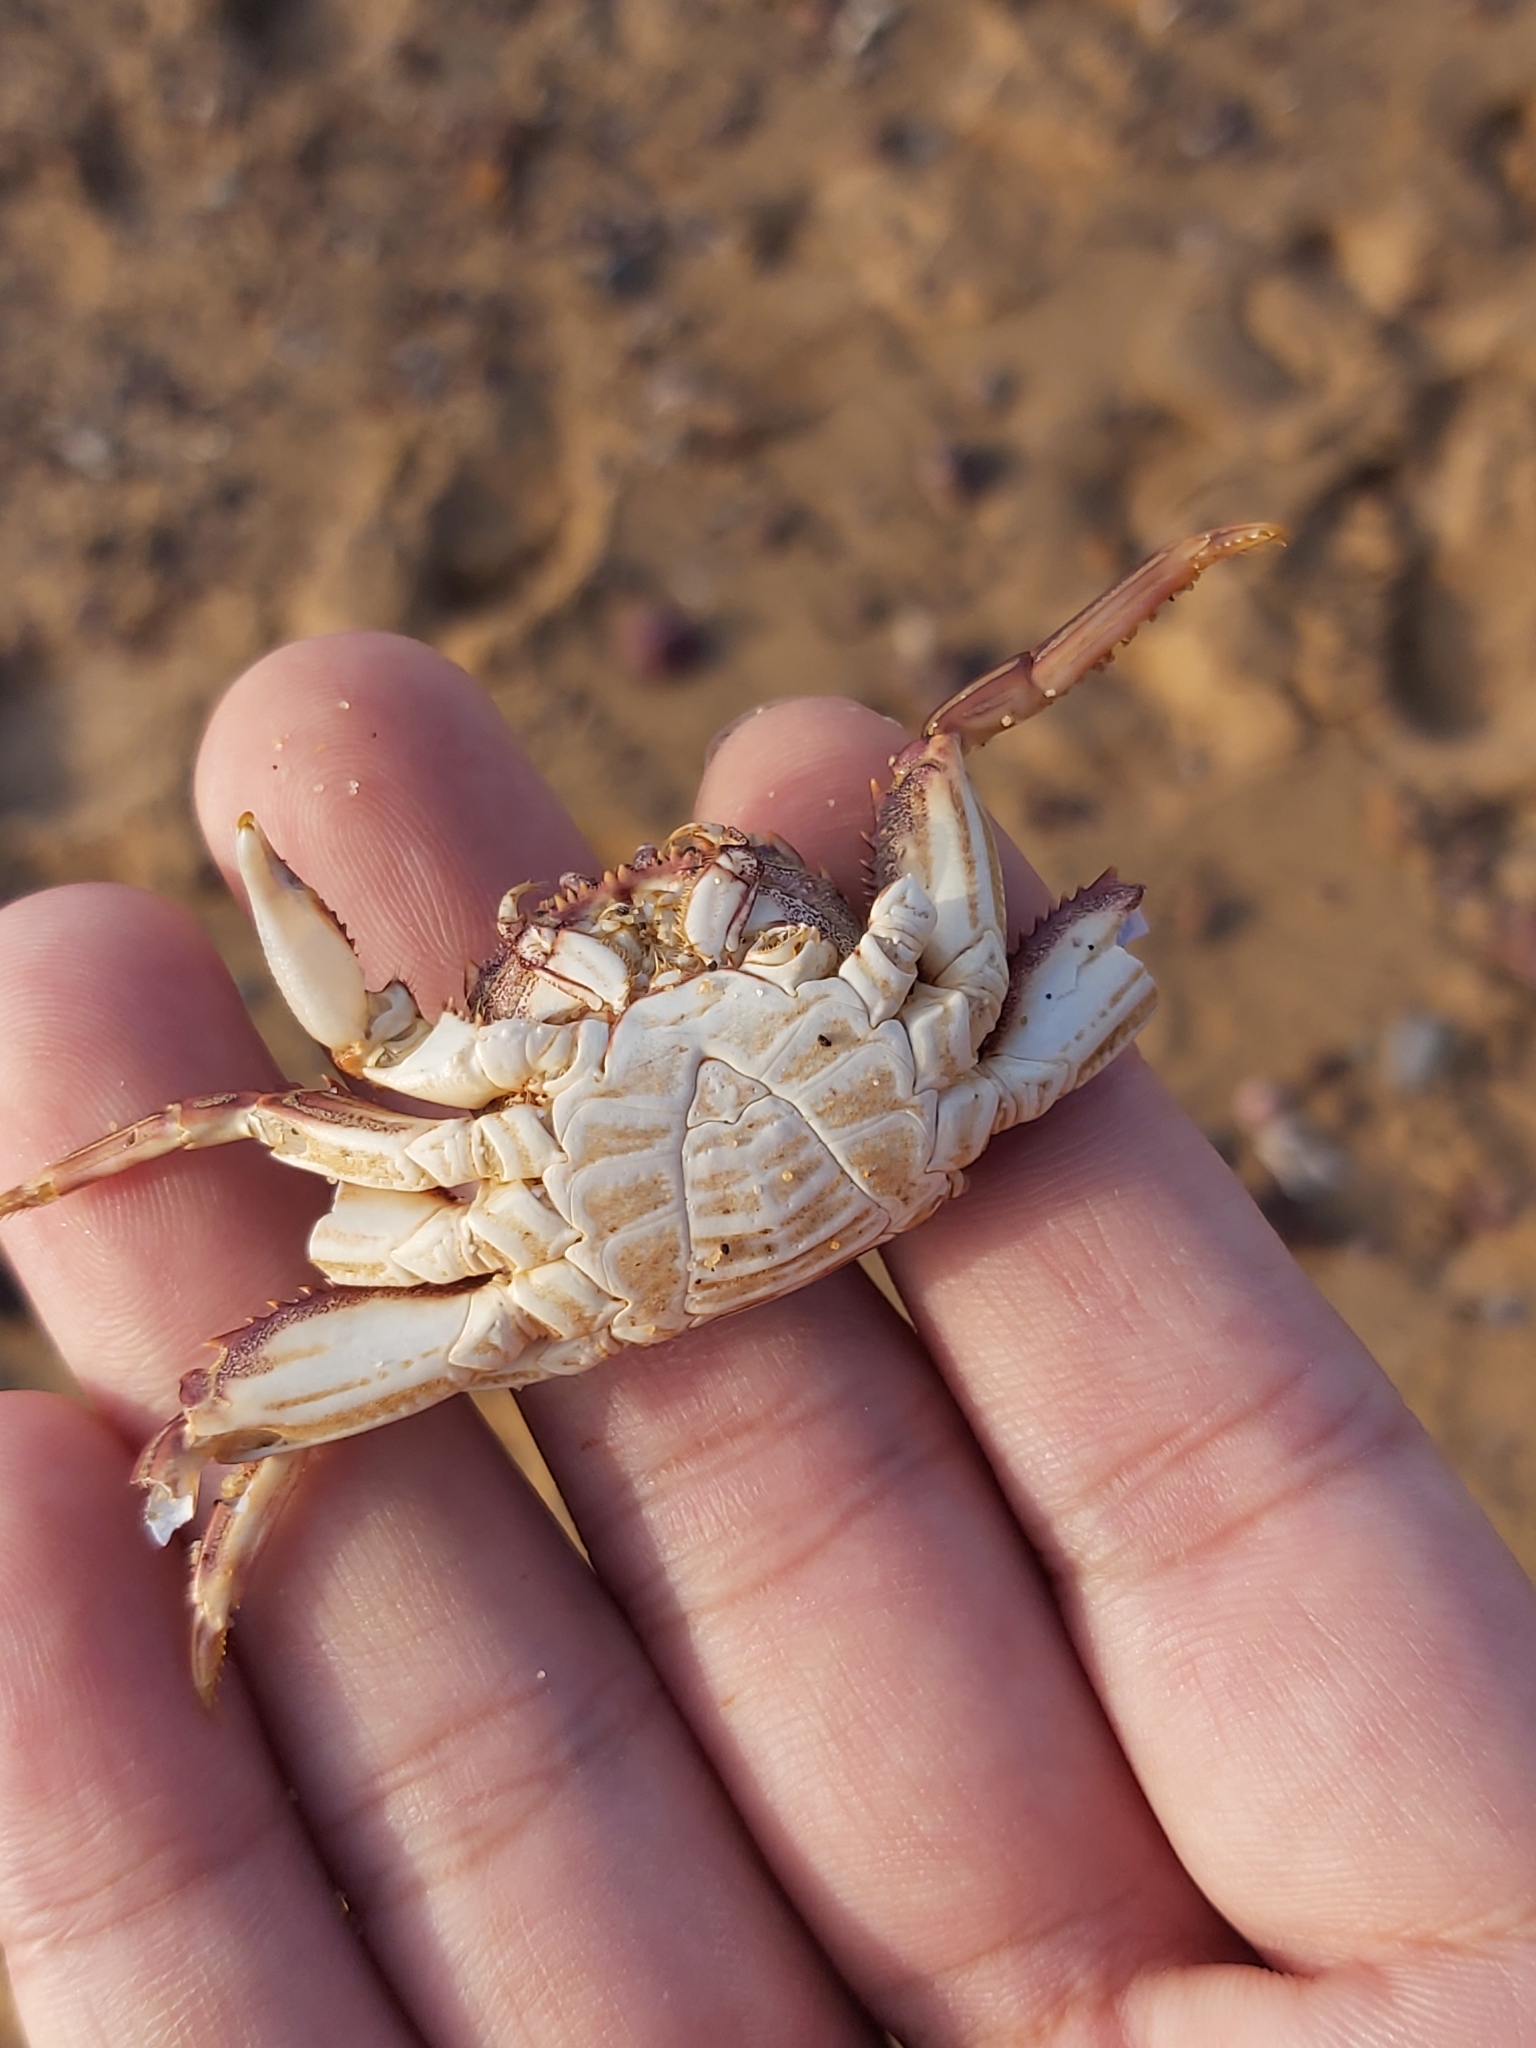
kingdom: Animalia
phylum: Arthropoda
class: Malacostraca
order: Decapoda
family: Plagusiidae
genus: Guinusia
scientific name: Guinusia chabrus
